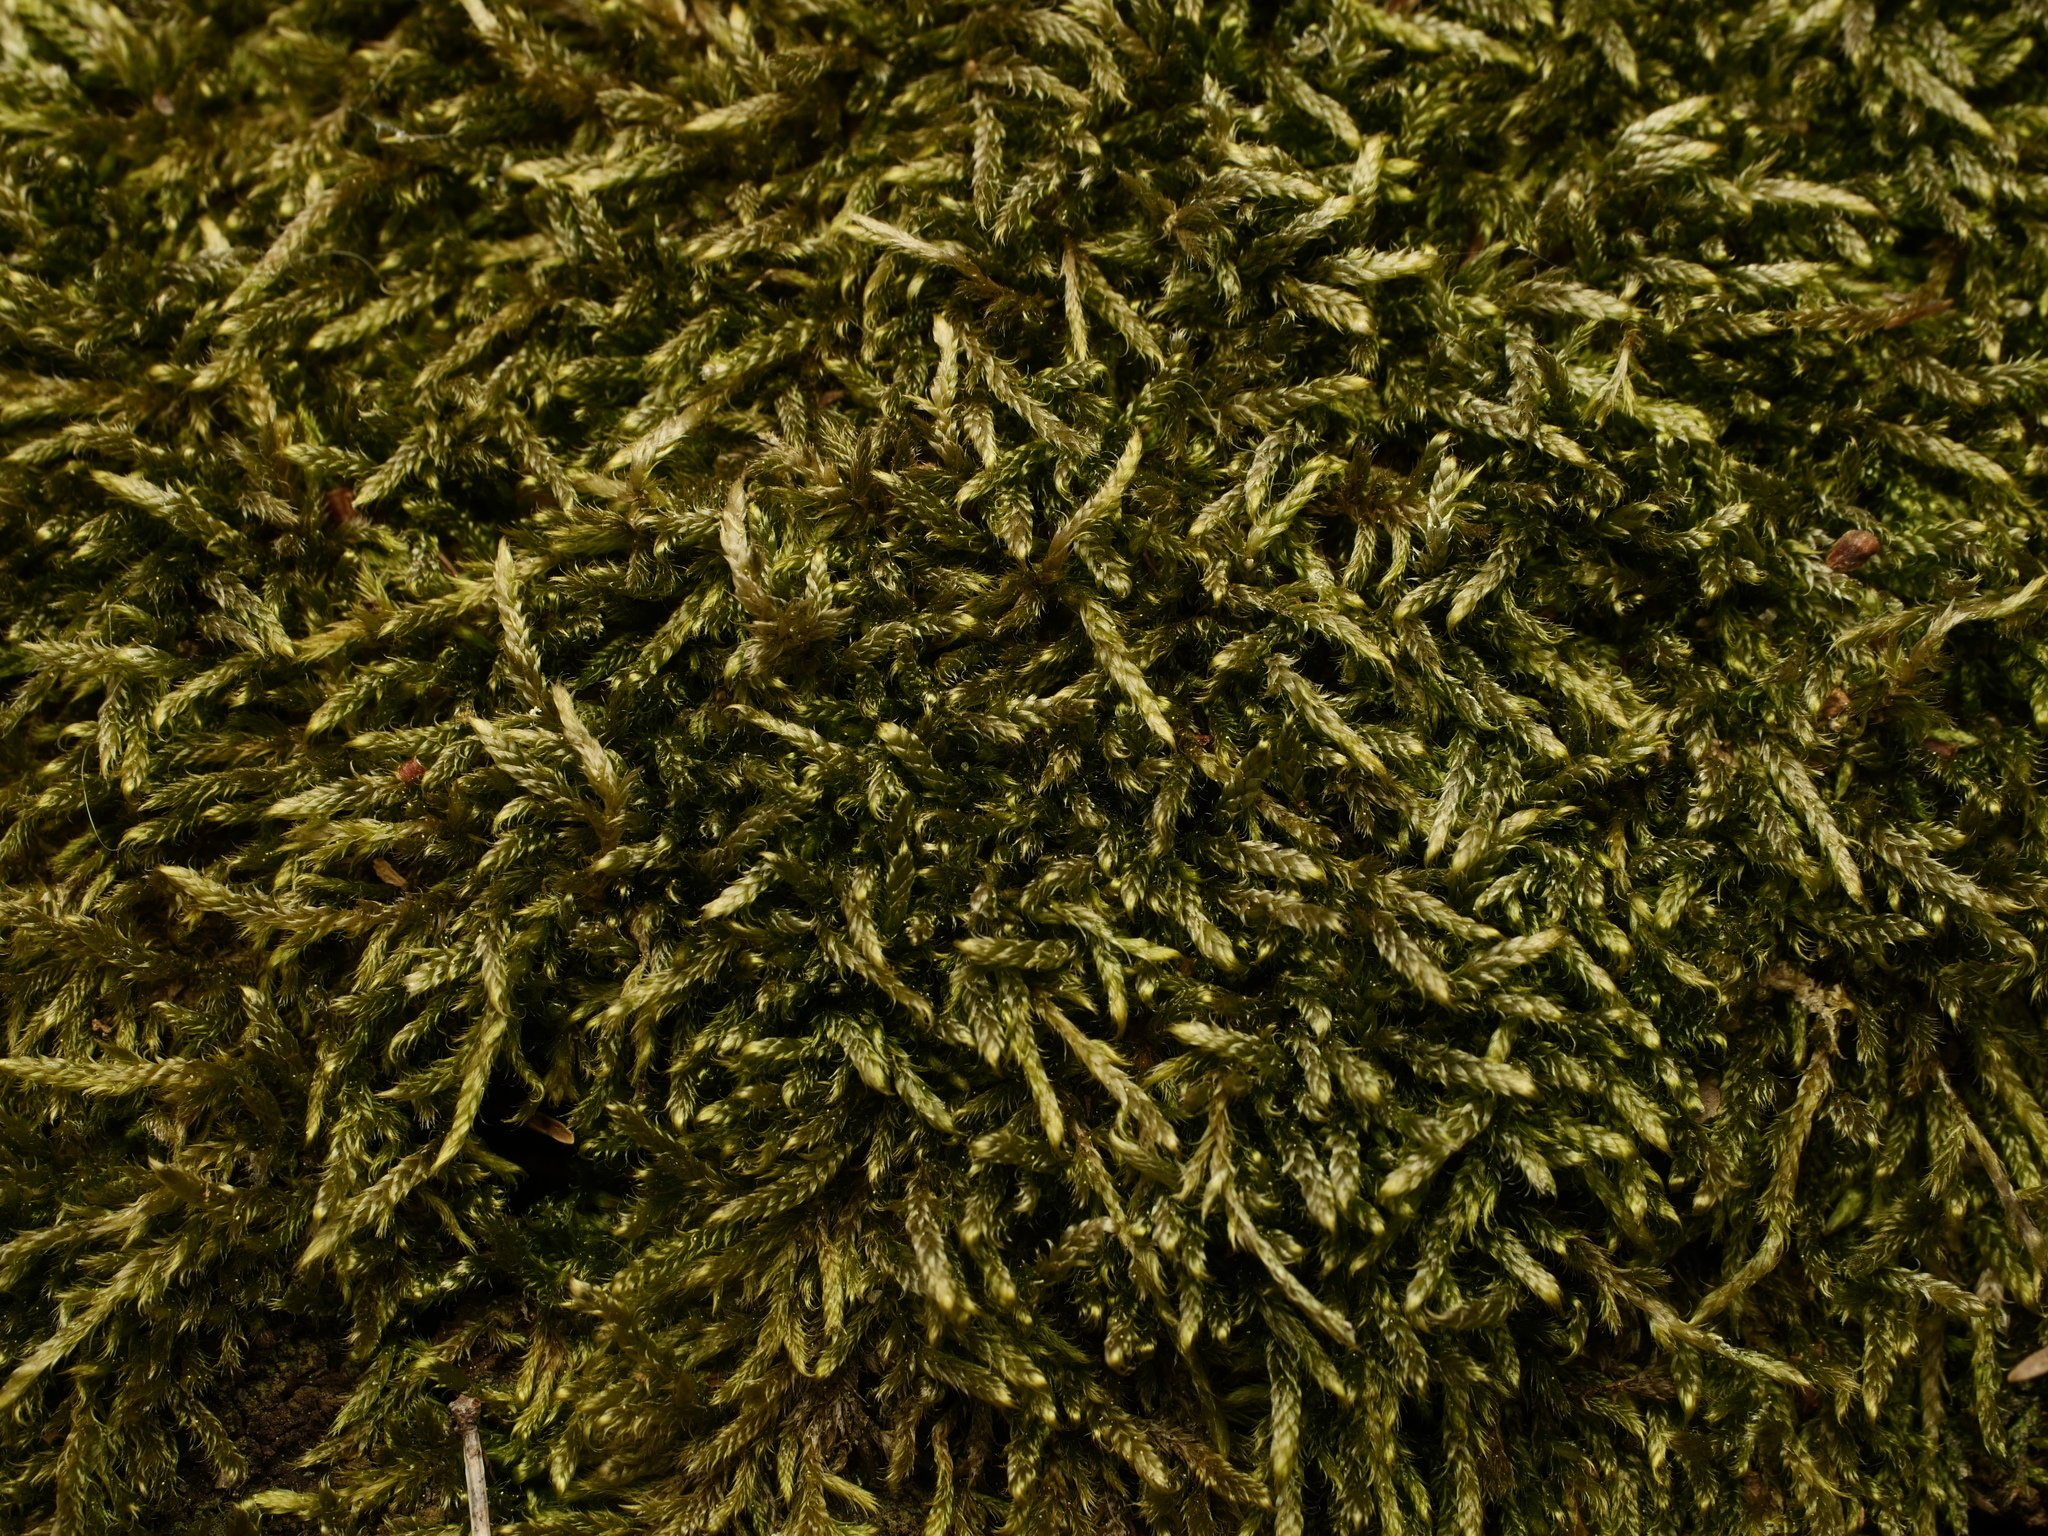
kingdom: Plantae
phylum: Bryophyta
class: Bryopsida
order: Hypnales
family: Hypnaceae
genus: Hypnum
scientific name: Hypnum cupressiforme
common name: Cypress-leaved plait-moss
